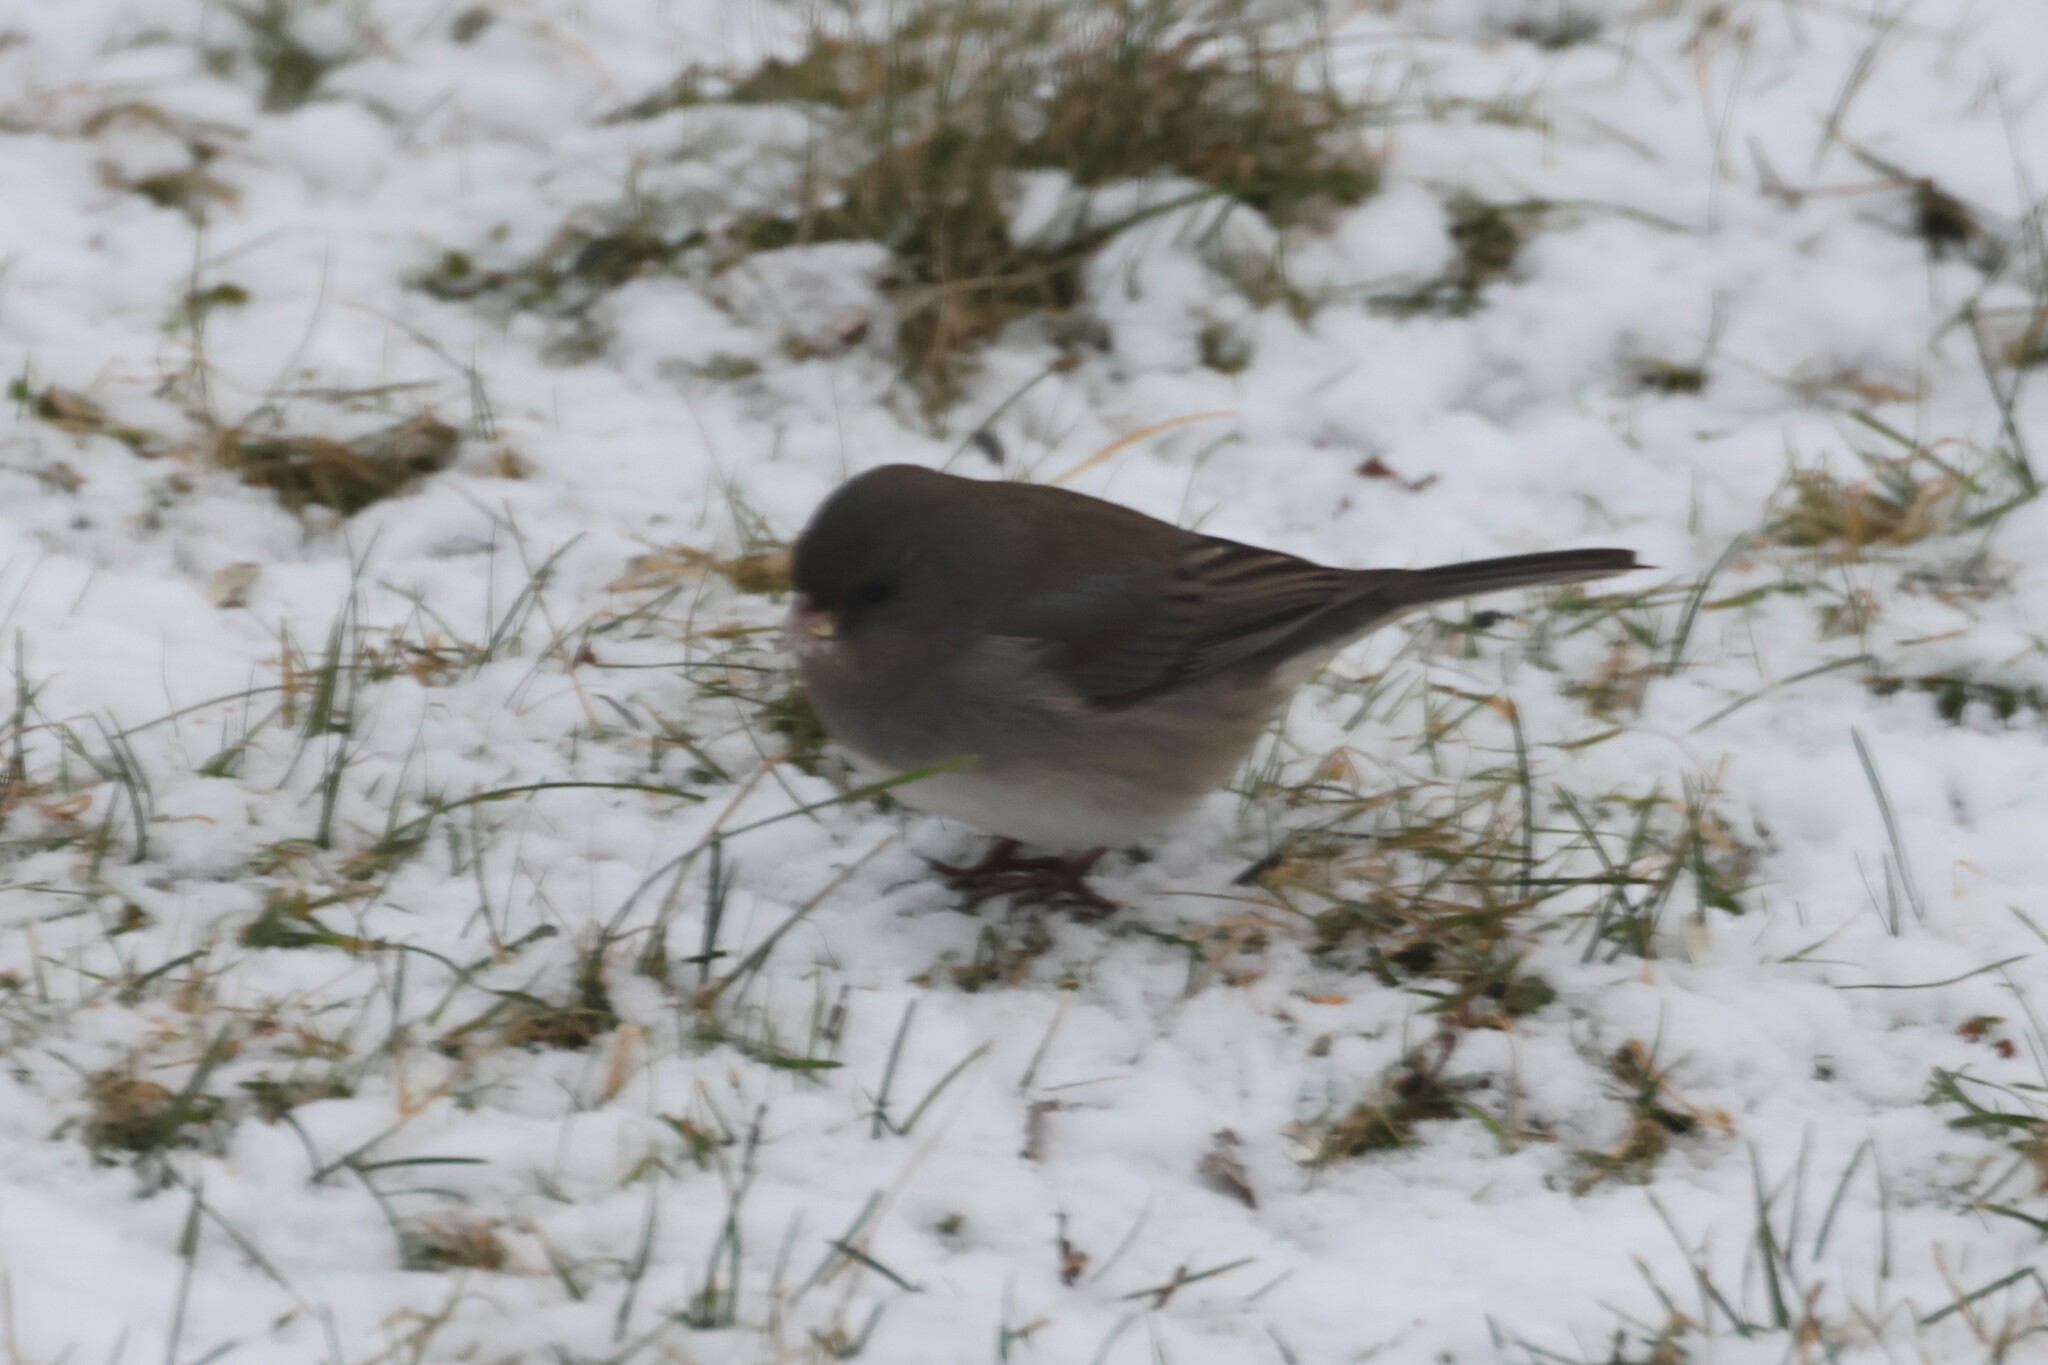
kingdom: Animalia
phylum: Chordata
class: Aves
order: Passeriformes
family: Passerellidae
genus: Junco
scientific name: Junco hyemalis
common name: Dark-eyed junco
